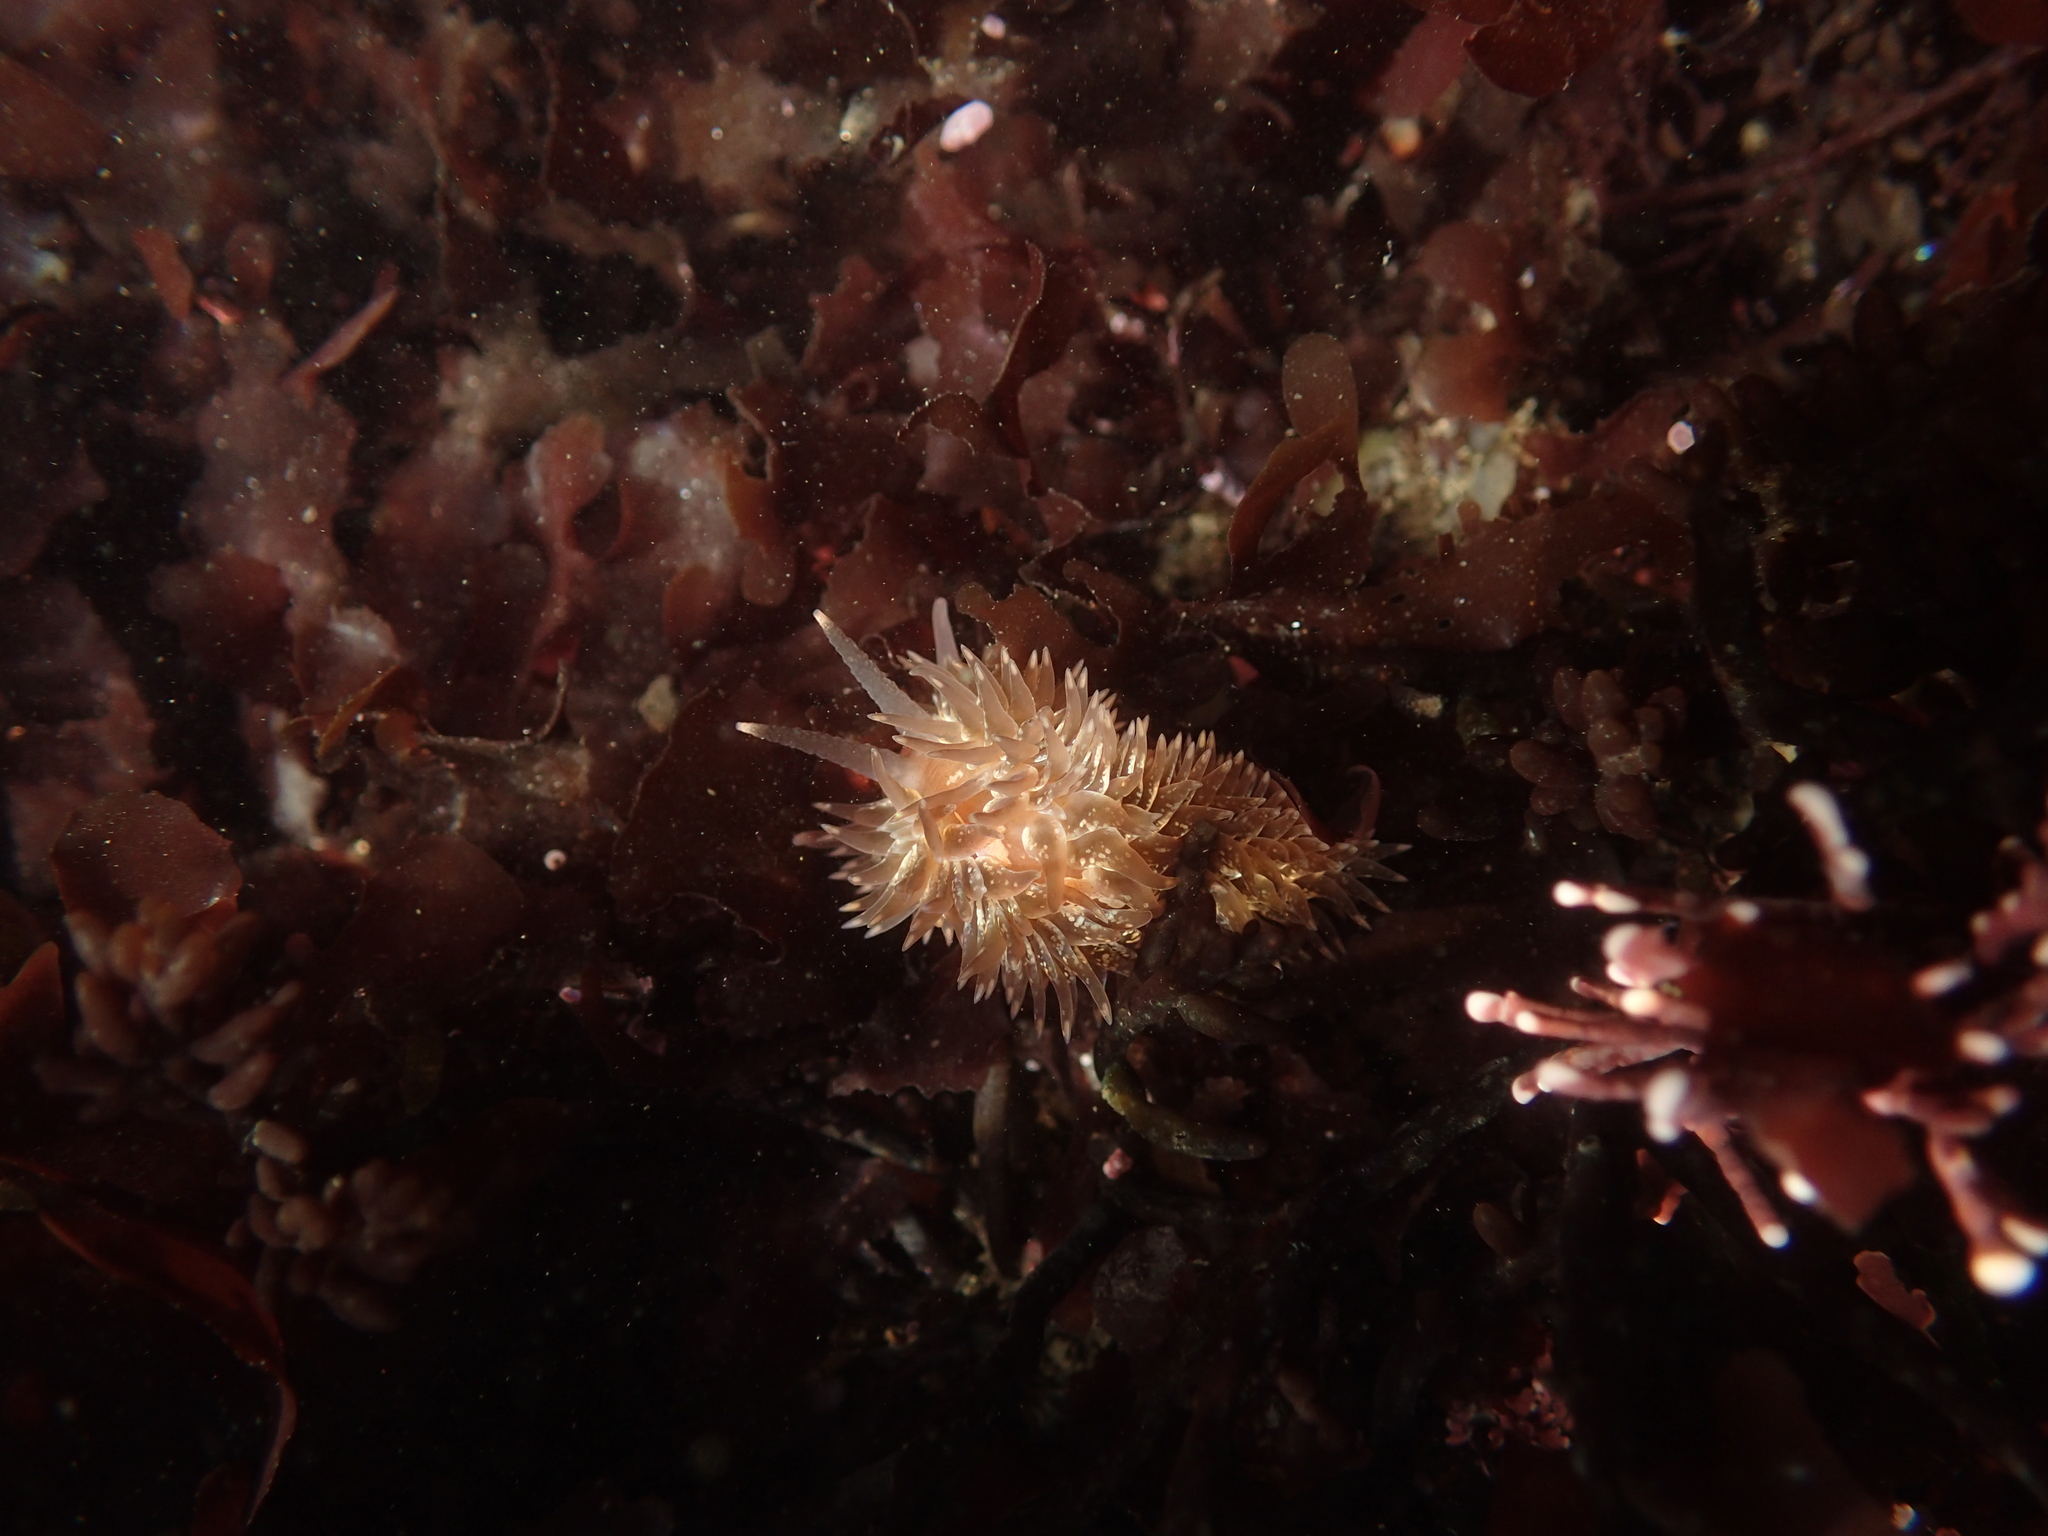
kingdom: Animalia
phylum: Mollusca
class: Gastropoda
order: Nudibranchia
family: Aeolidiidae
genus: Aeolidia
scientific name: Aeolidia loui
